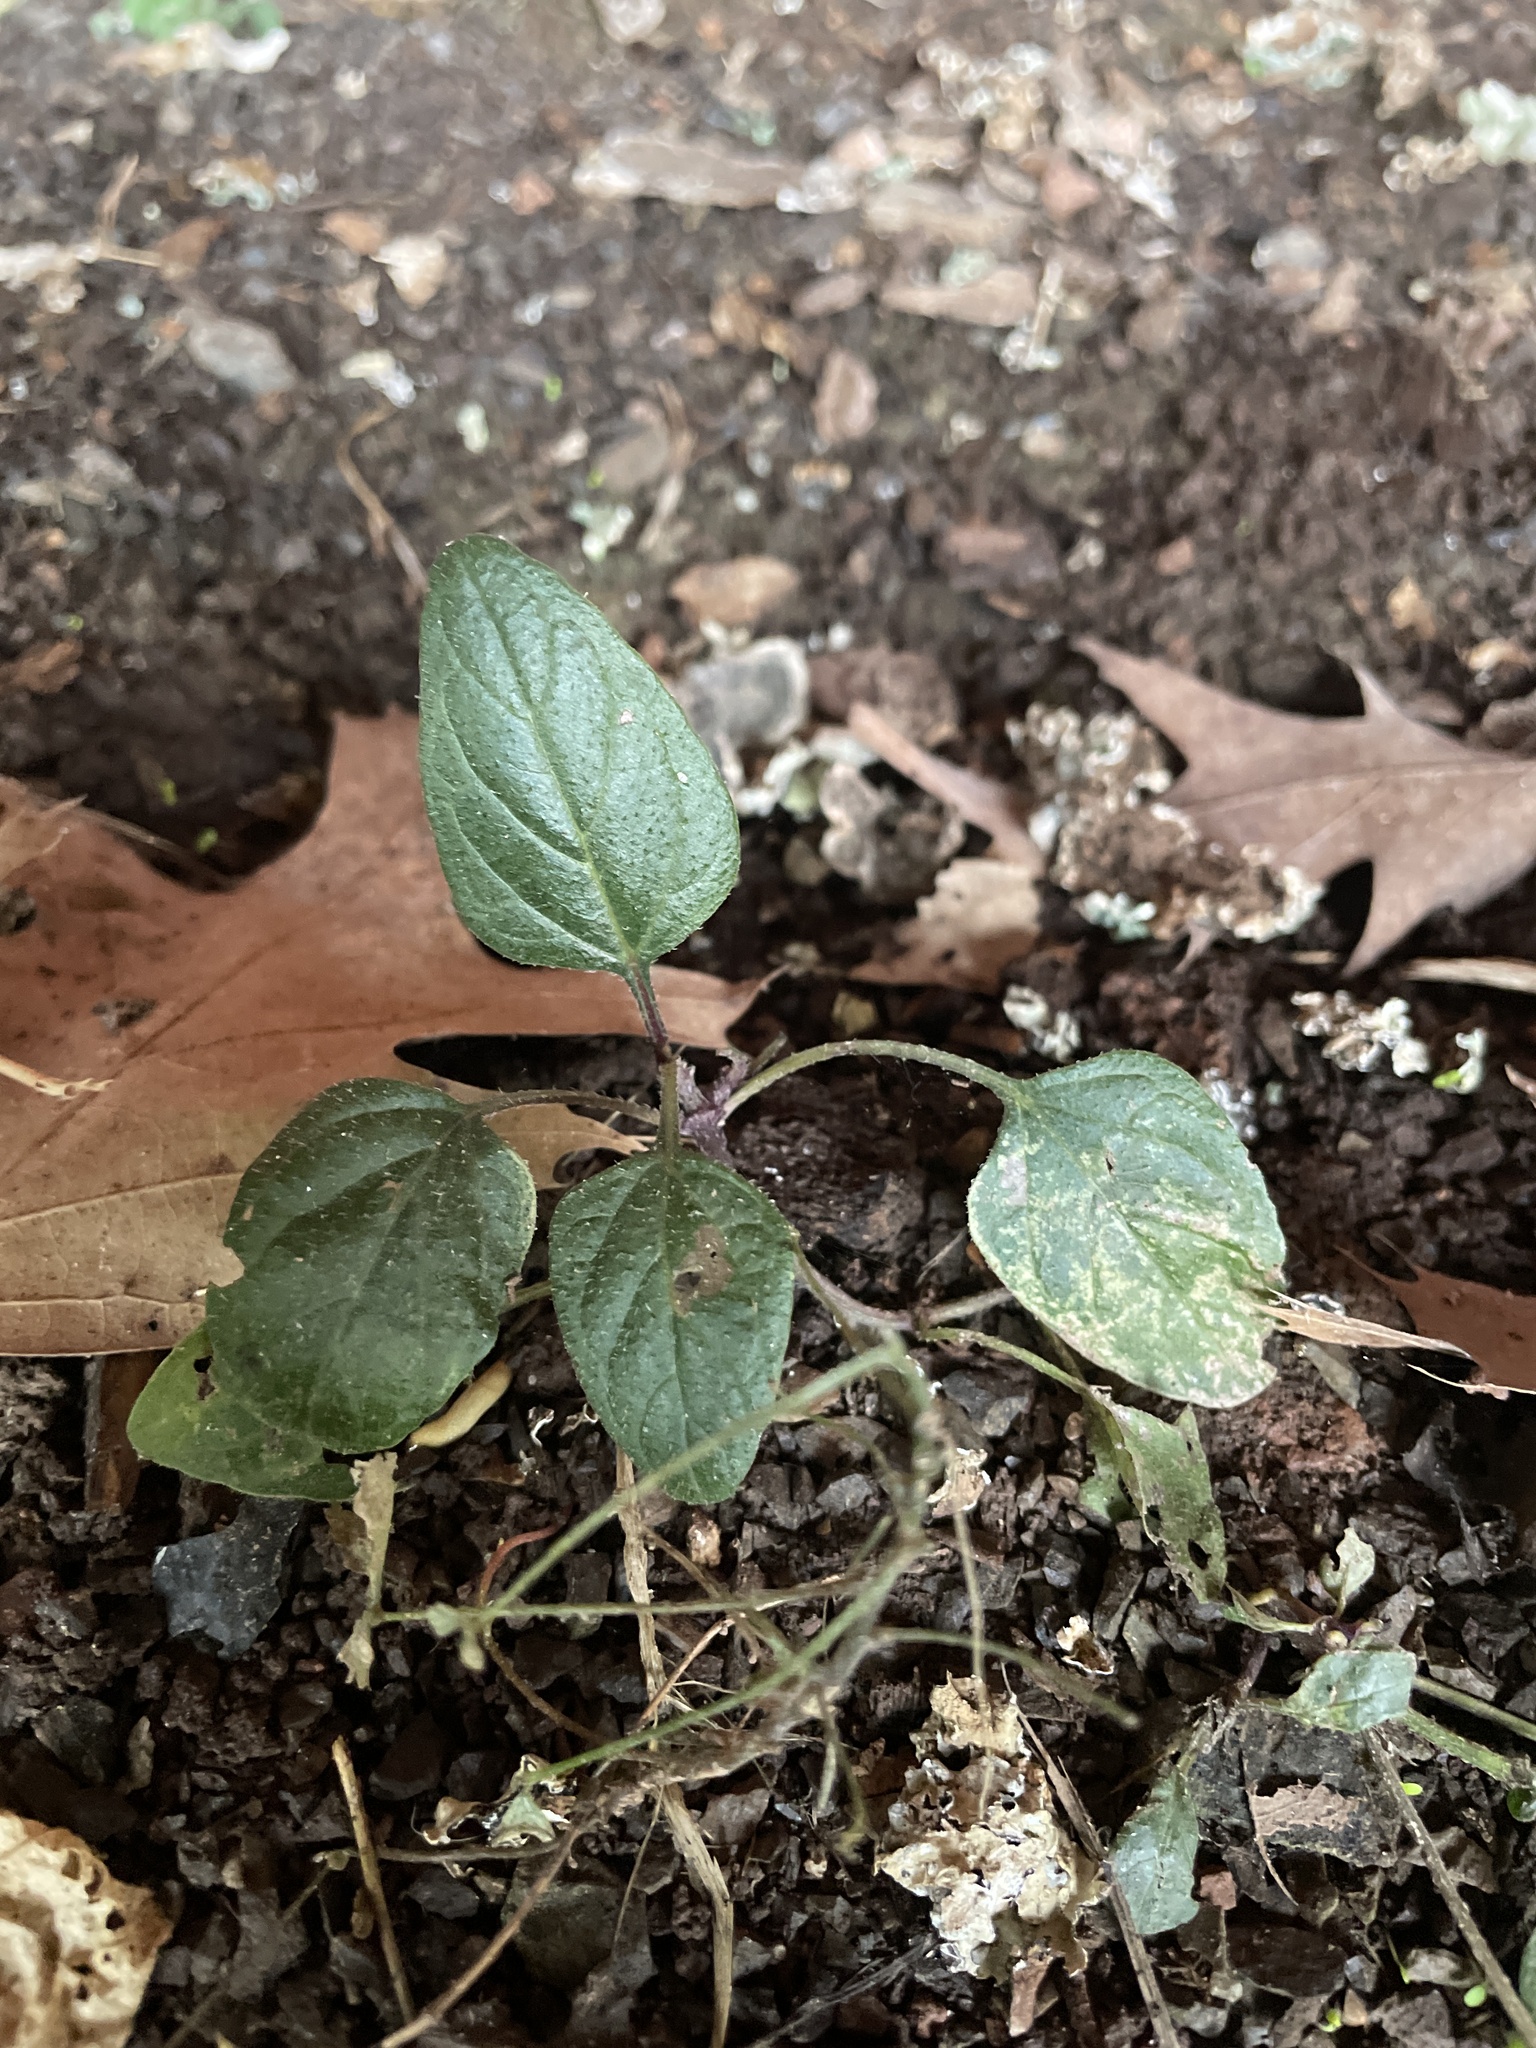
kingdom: Plantae
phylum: Tracheophyta
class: Magnoliopsida
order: Lamiales
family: Lamiaceae
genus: Prunella
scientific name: Prunella vulgaris
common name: Heal-all
